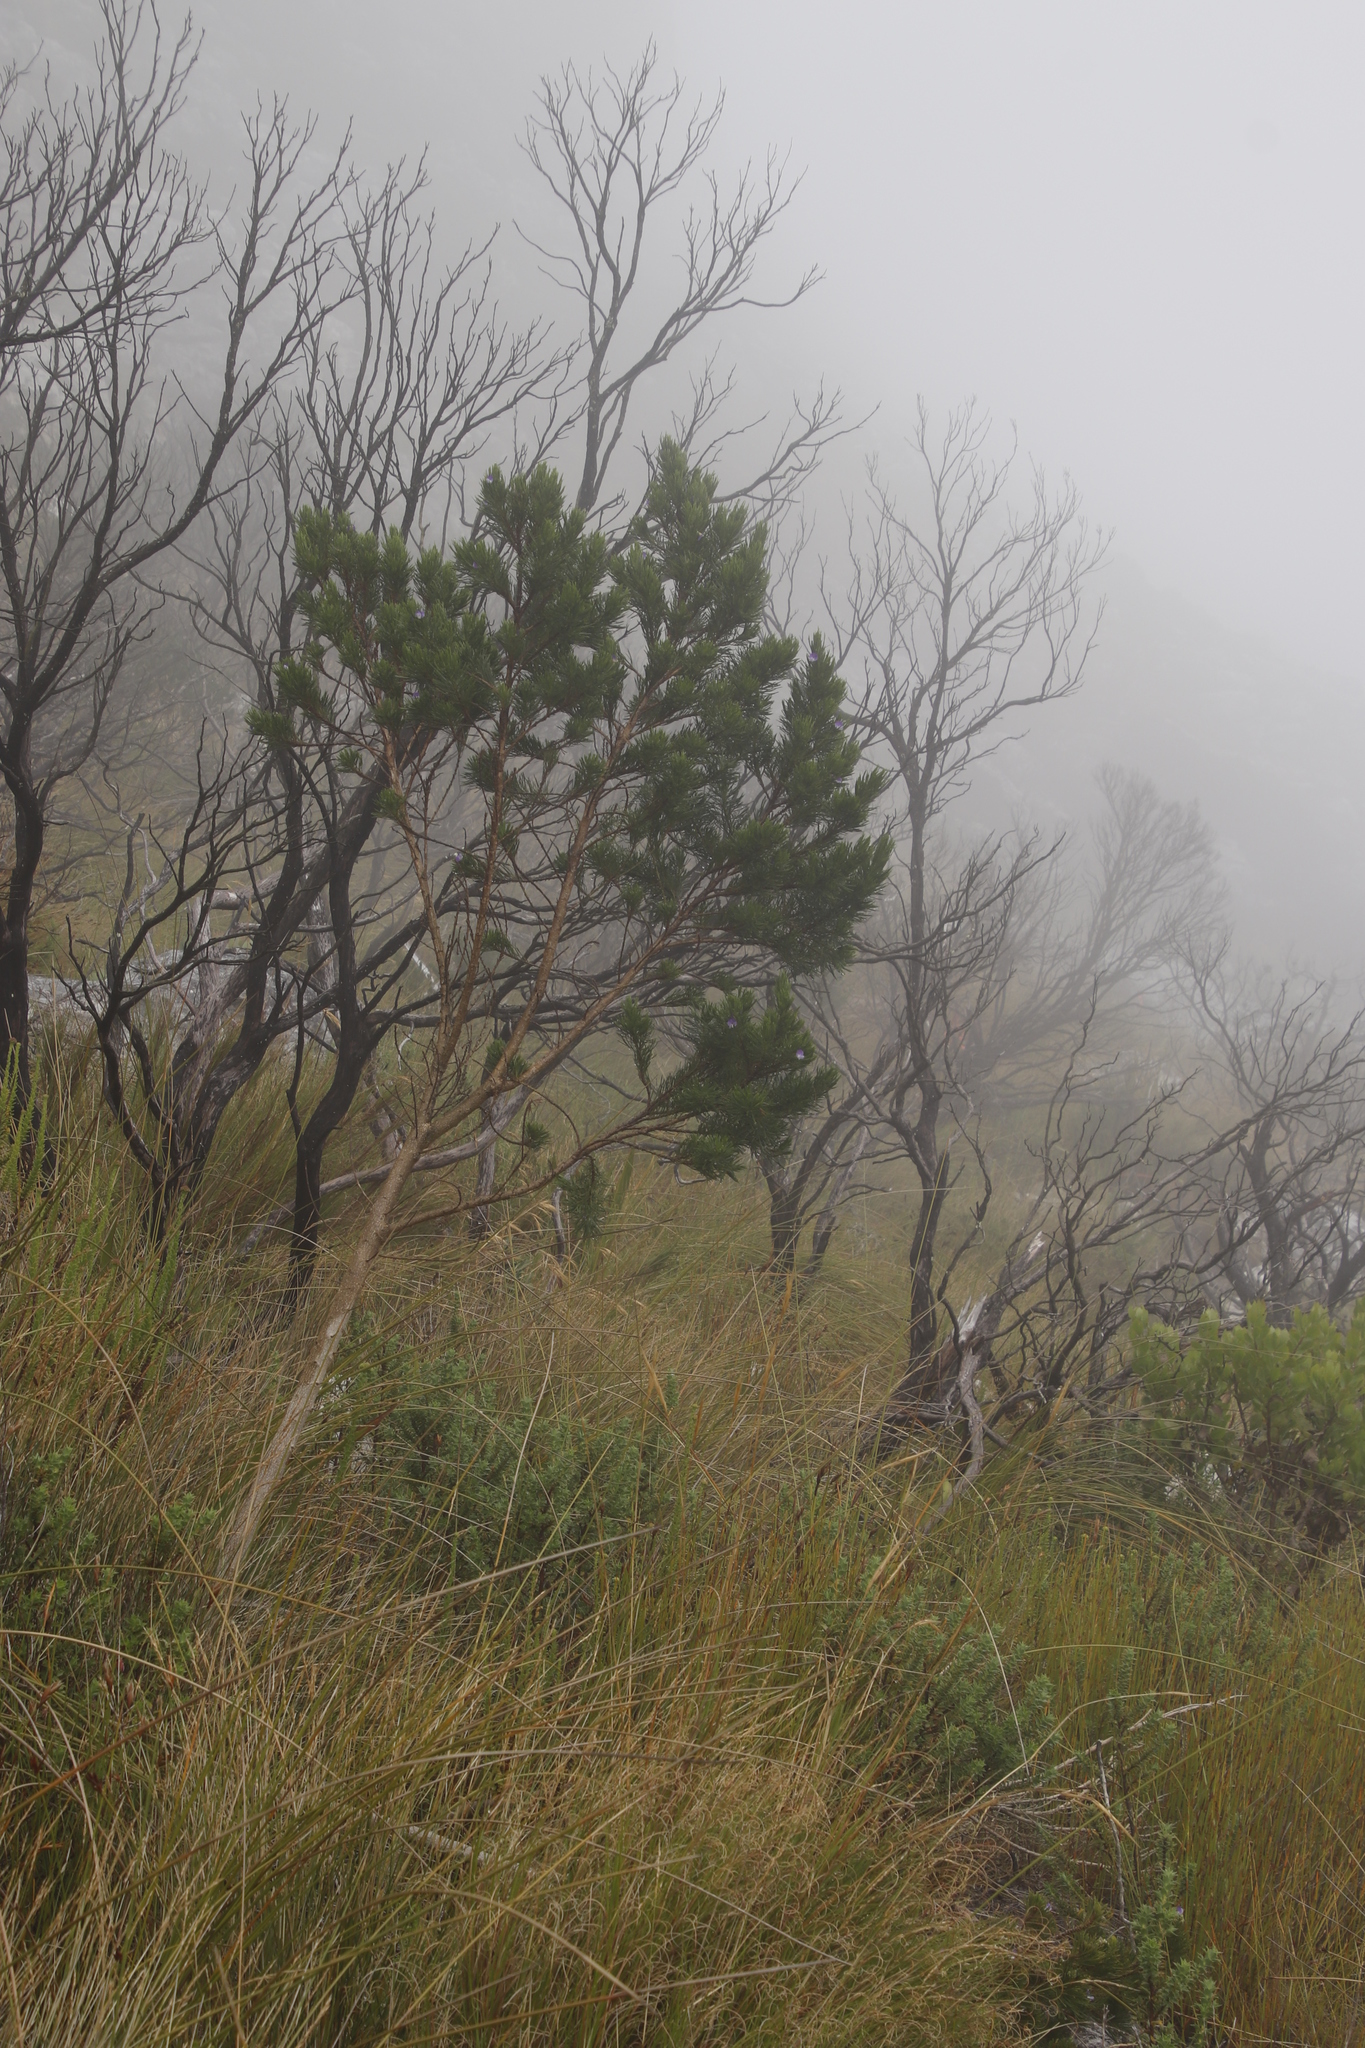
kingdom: Plantae
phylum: Tracheophyta
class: Magnoliopsida
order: Fabales
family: Fabaceae
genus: Psoralea
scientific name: Psoralea pinnata
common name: African scurfpea
